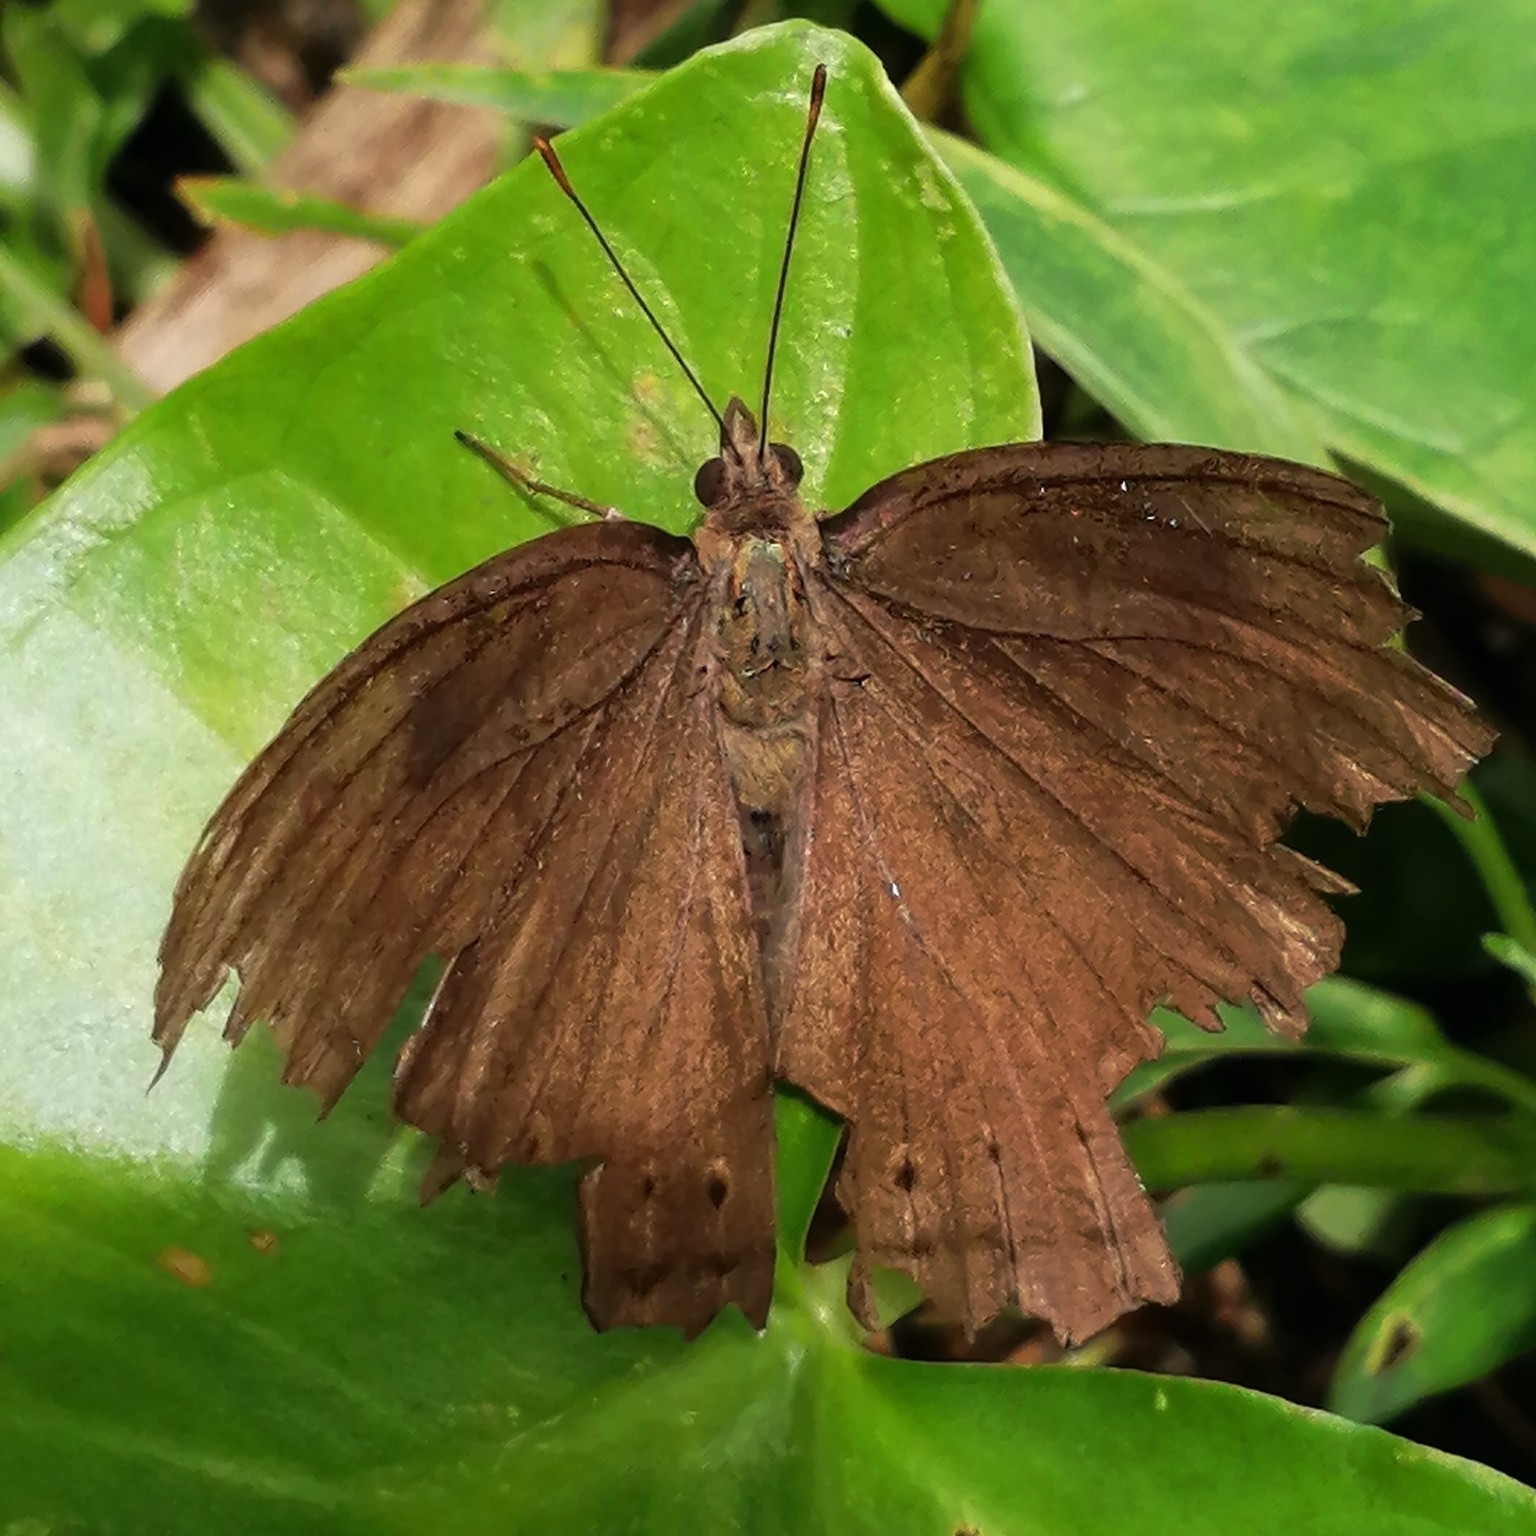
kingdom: Animalia
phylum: Arthropoda
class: Insecta
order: Lepidoptera
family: Nymphalidae
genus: Junonia
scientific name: Junonia iphita
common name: Chocolate pansy
